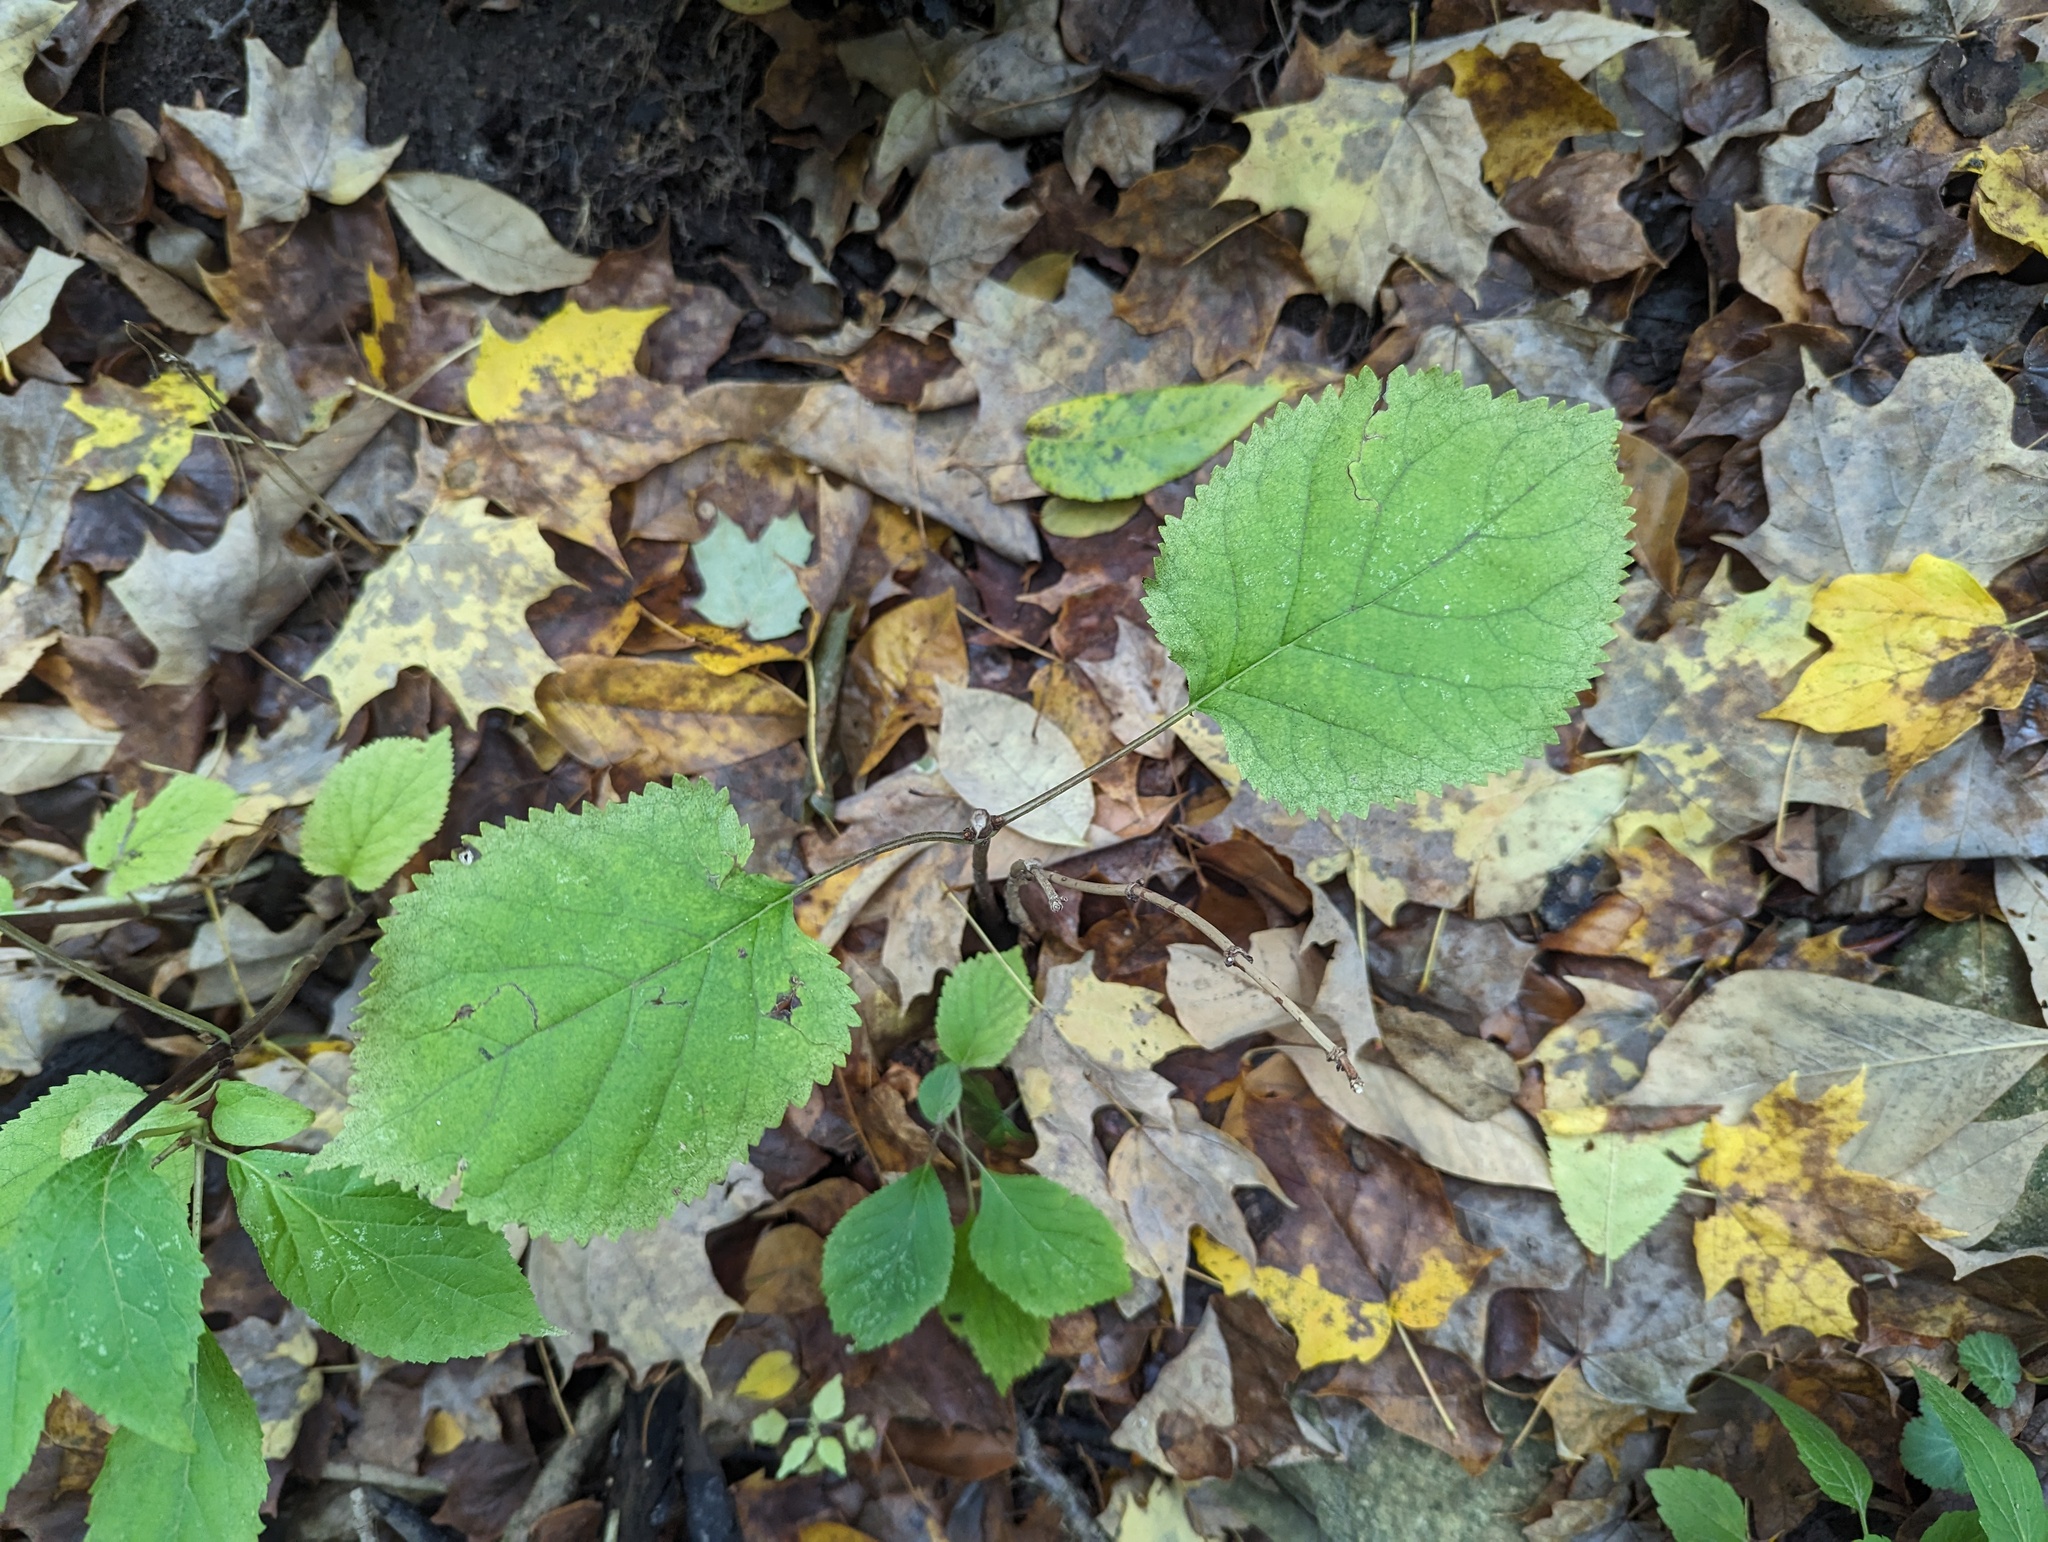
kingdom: Plantae
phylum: Tracheophyta
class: Magnoliopsida
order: Cornales
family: Hydrangeaceae
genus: Hydrangea
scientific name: Hydrangea cinerea
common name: Ashy hydrangea
